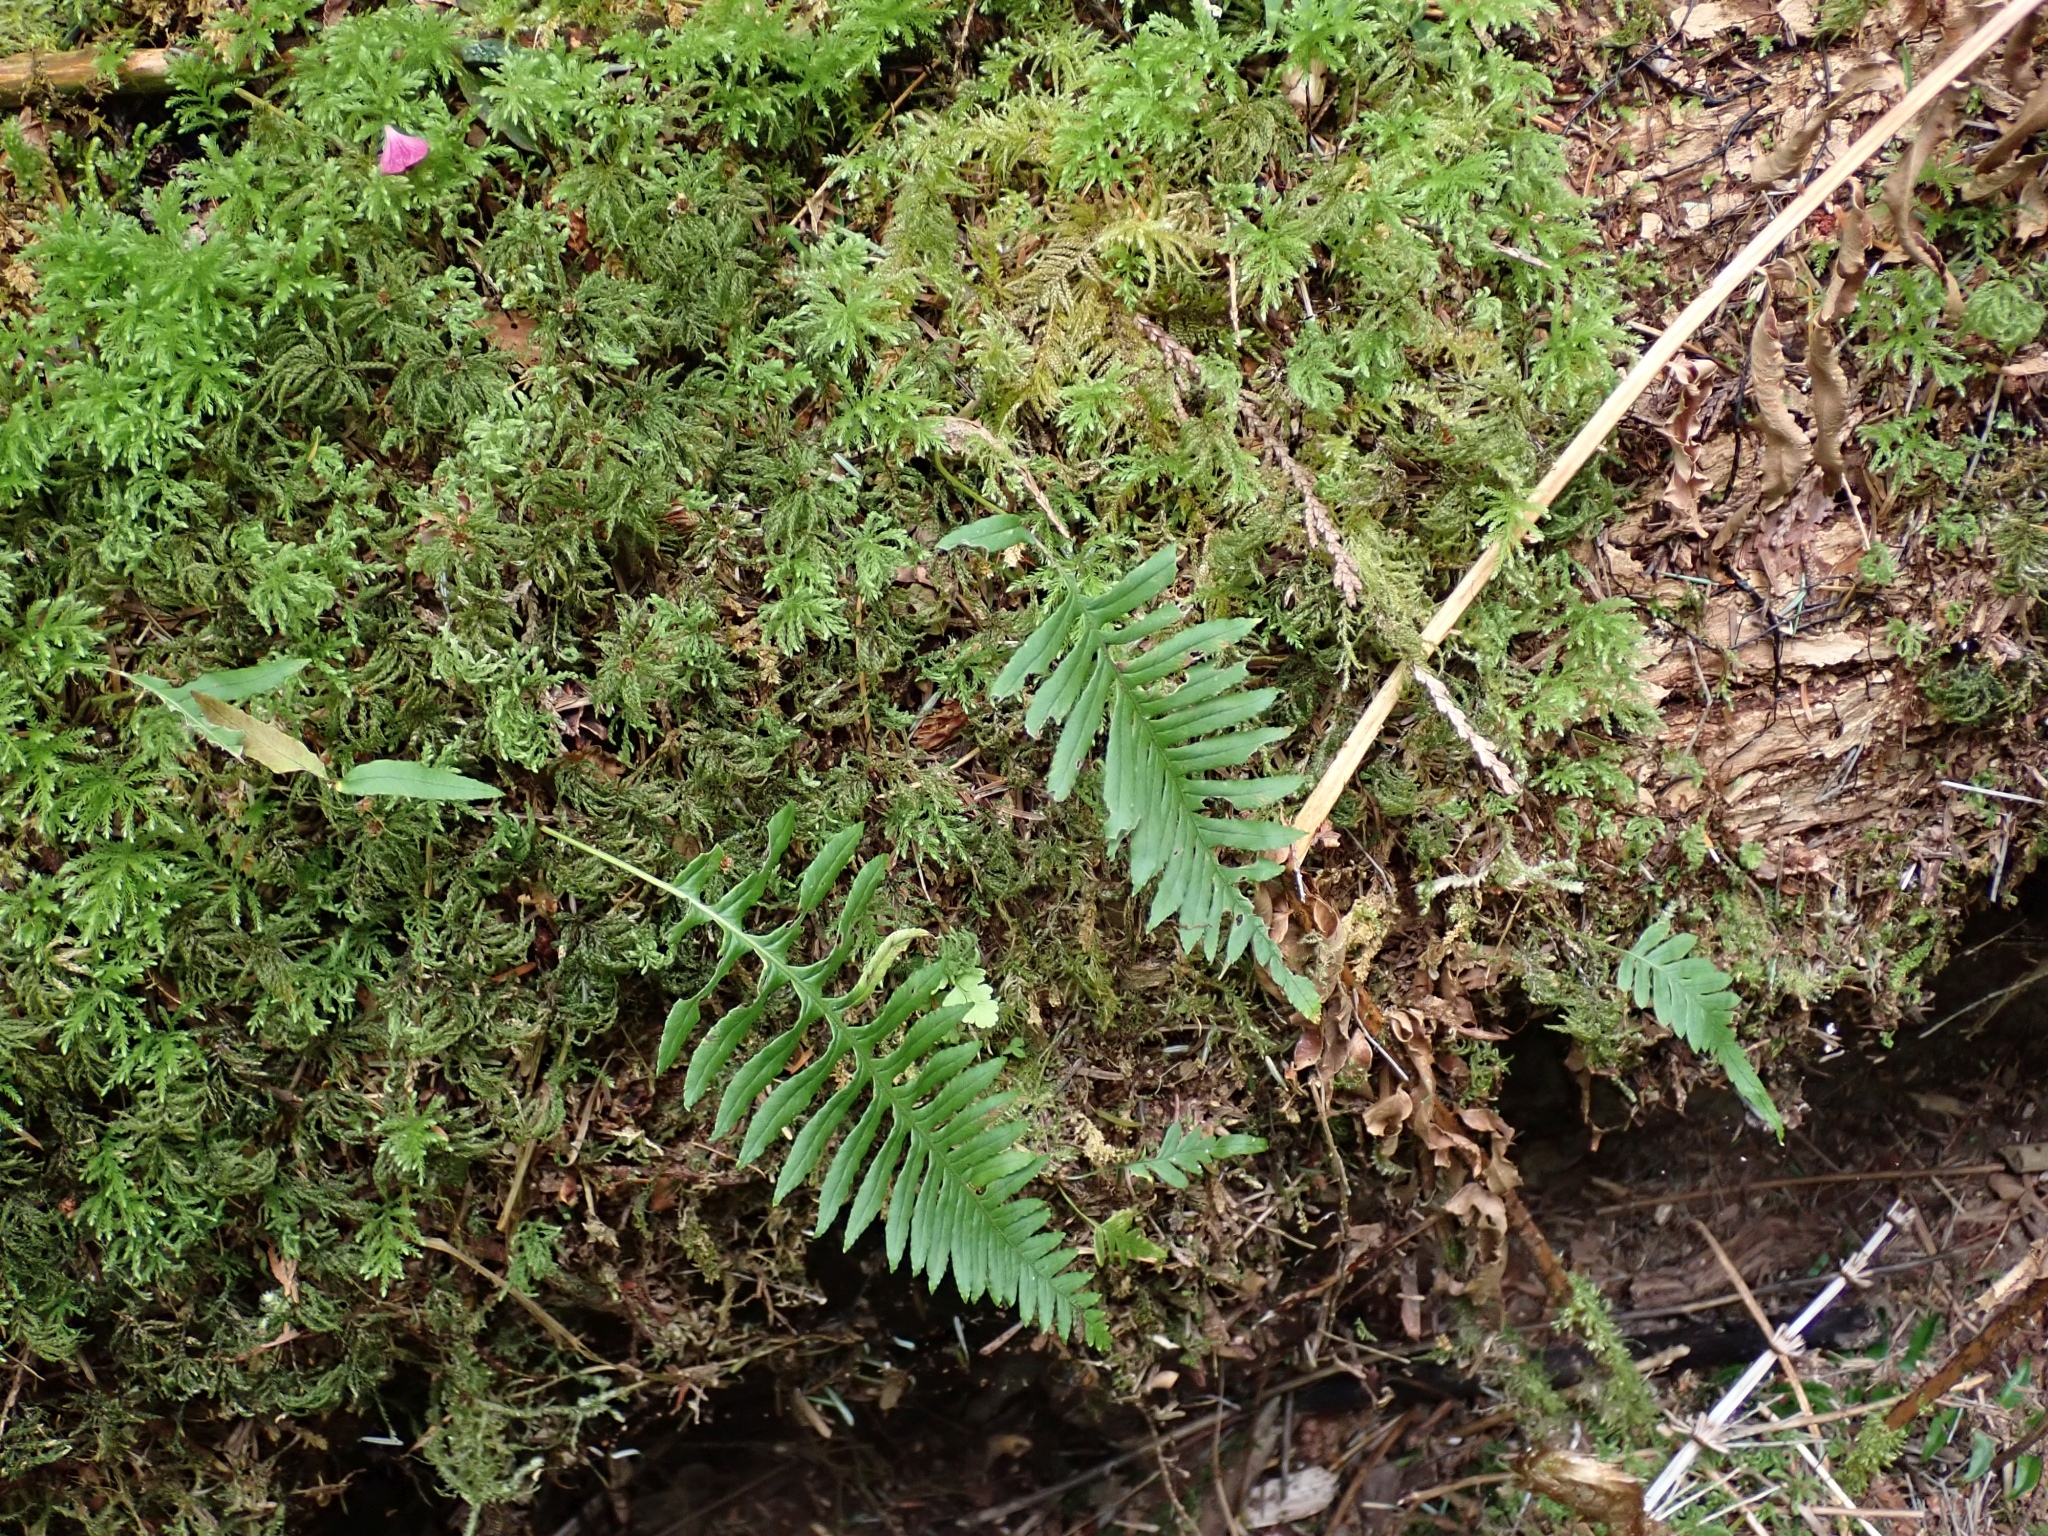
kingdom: Plantae
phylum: Tracheophyta
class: Polypodiopsida
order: Polypodiales
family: Polypodiaceae
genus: Polypodium
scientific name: Polypodium glycyrrhiza
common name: Licorice fern
